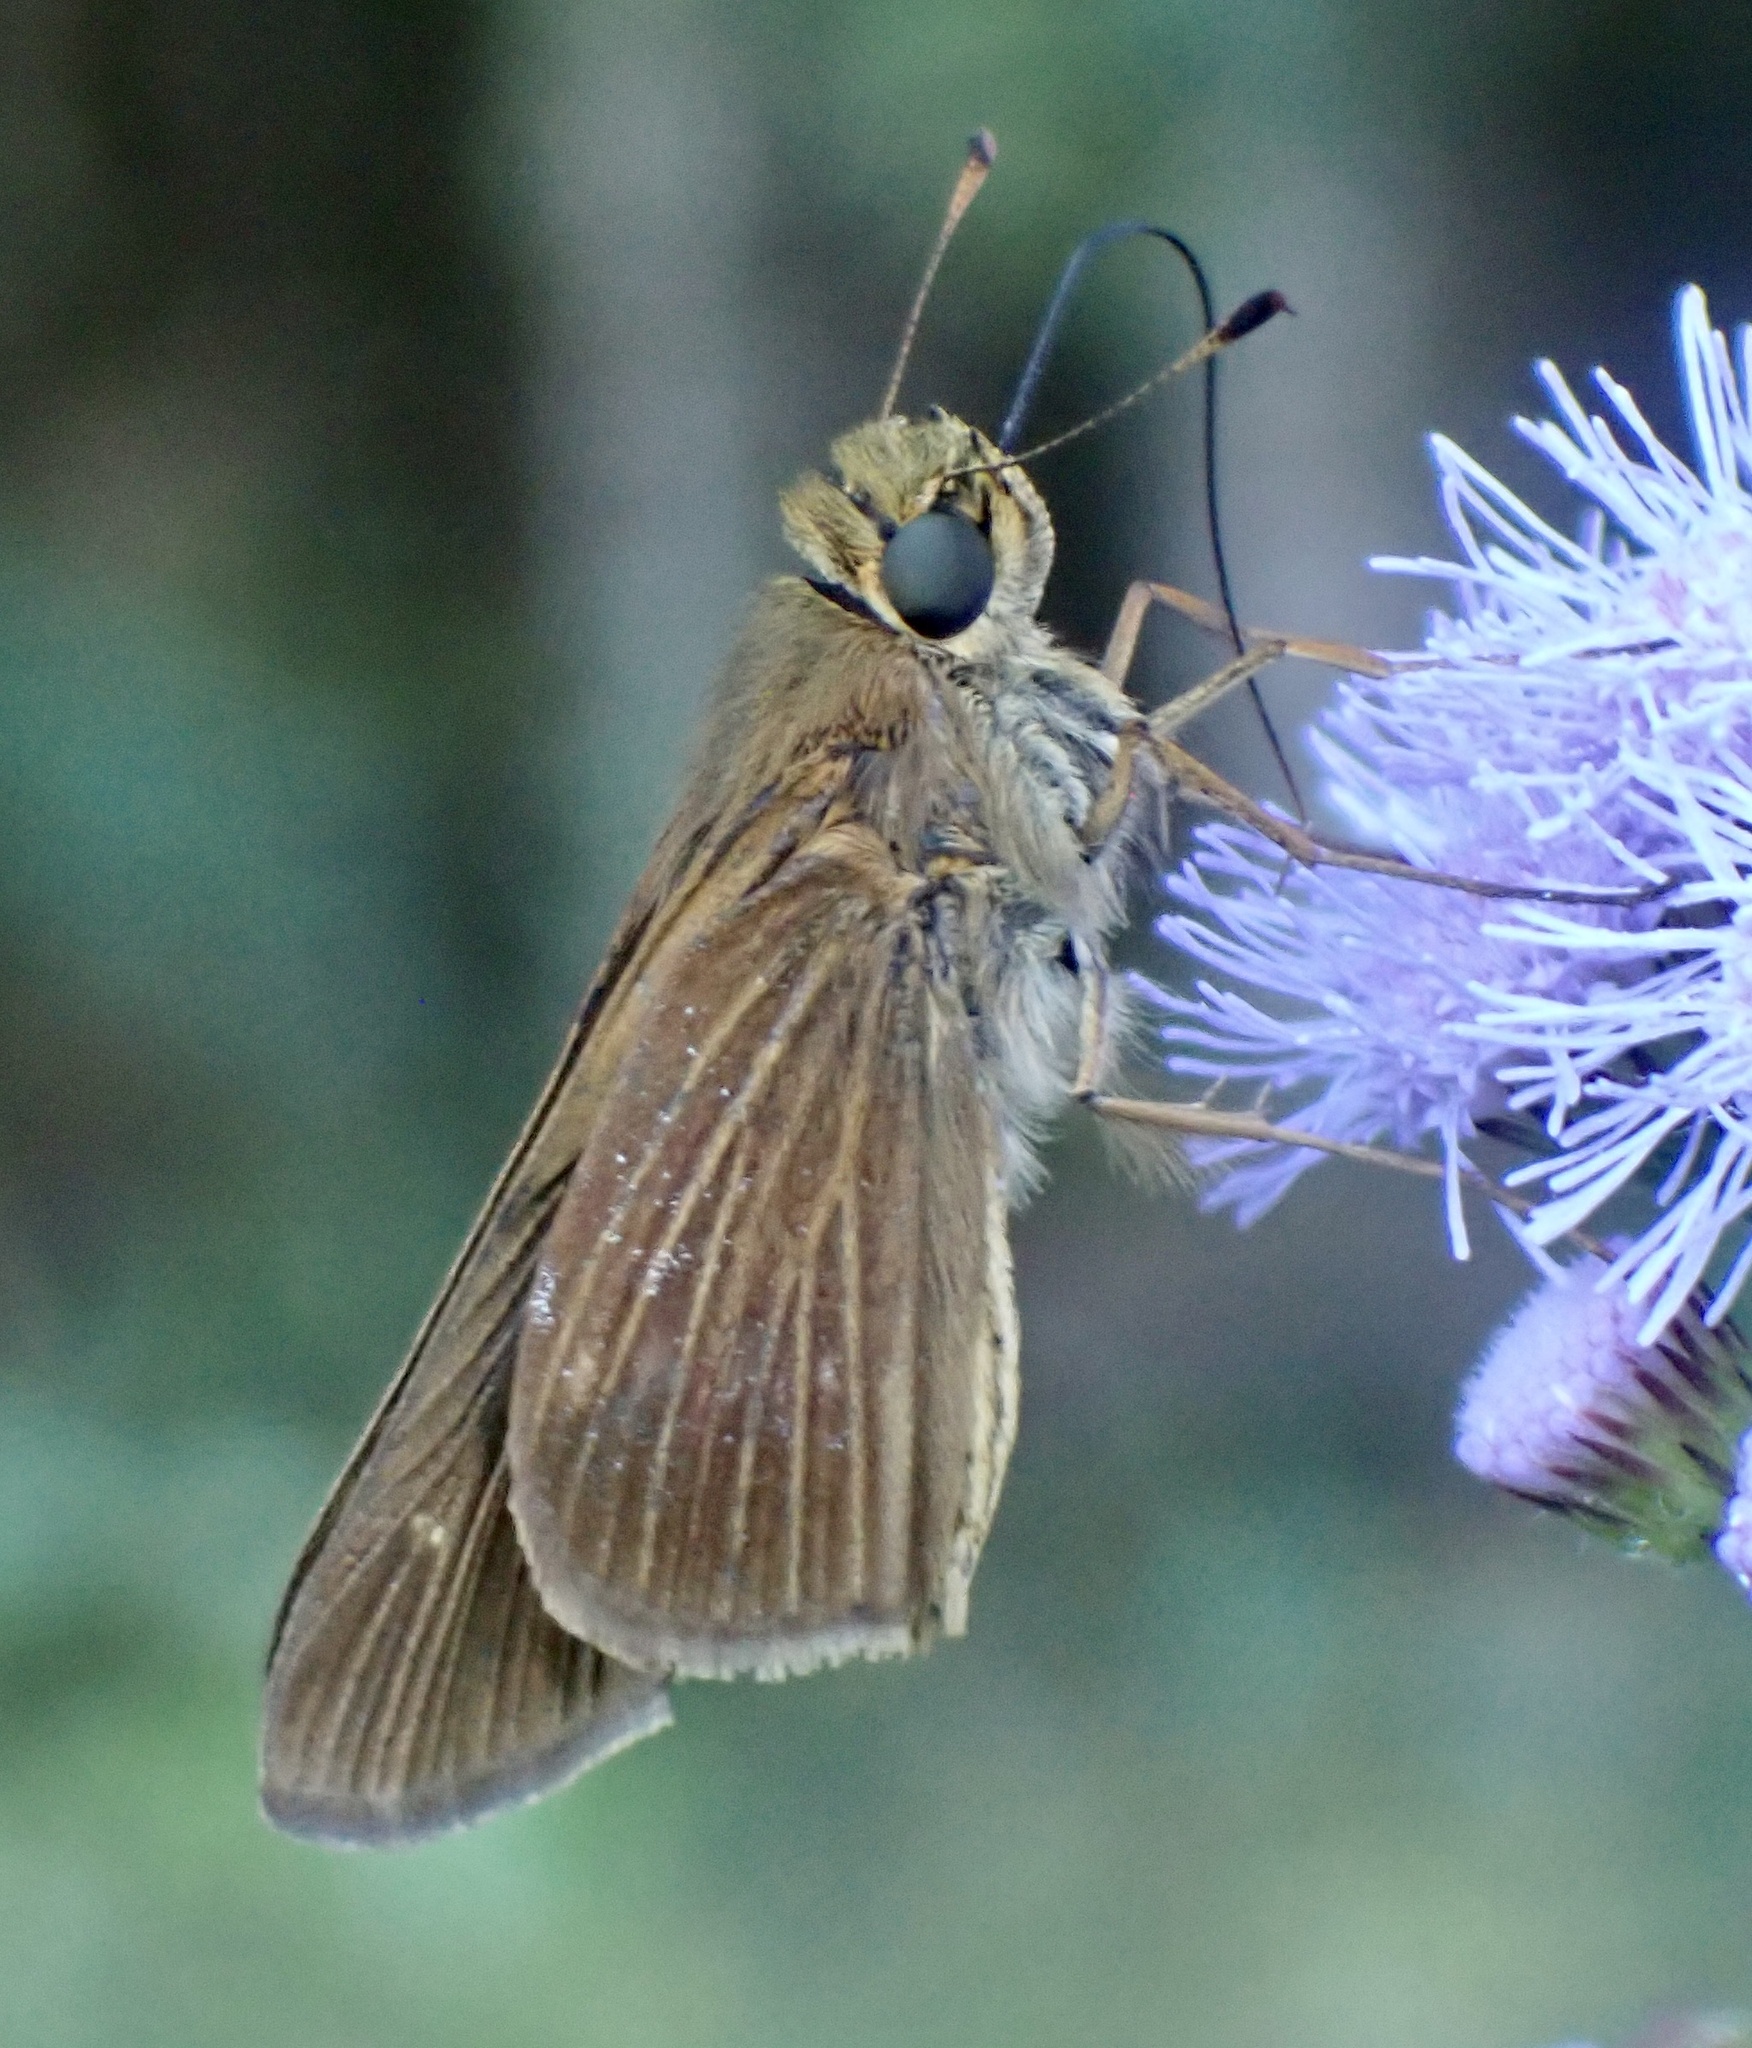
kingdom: Animalia
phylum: Arthropoda
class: Insecta
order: Lepidoptera
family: Hesperiidae
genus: Panoquina
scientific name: Panoquina ocola
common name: Ocola skipper
